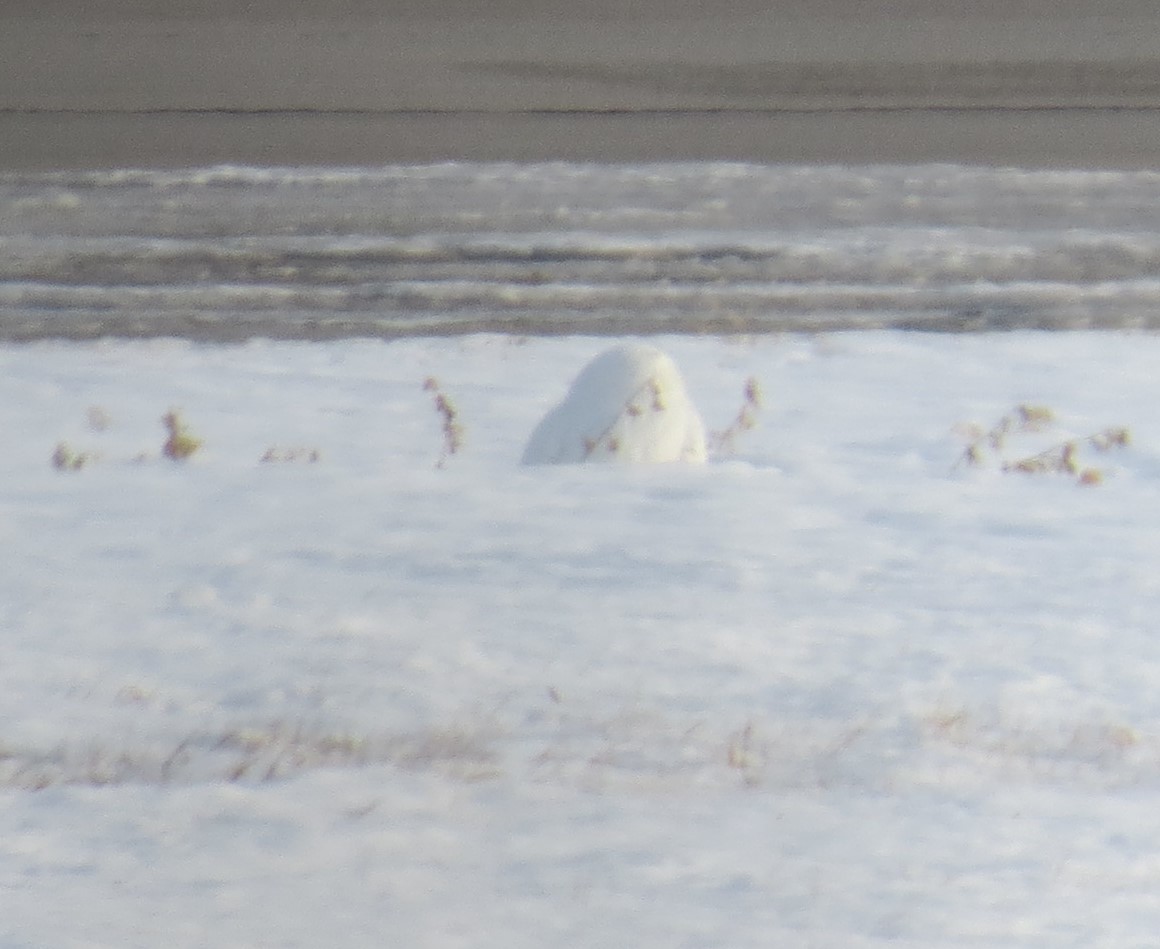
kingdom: Animalia
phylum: Chordata
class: Aves
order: Strigiformes
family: Strigidae
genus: Bubo
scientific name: Bubo scandiacus
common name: Snowy owl
